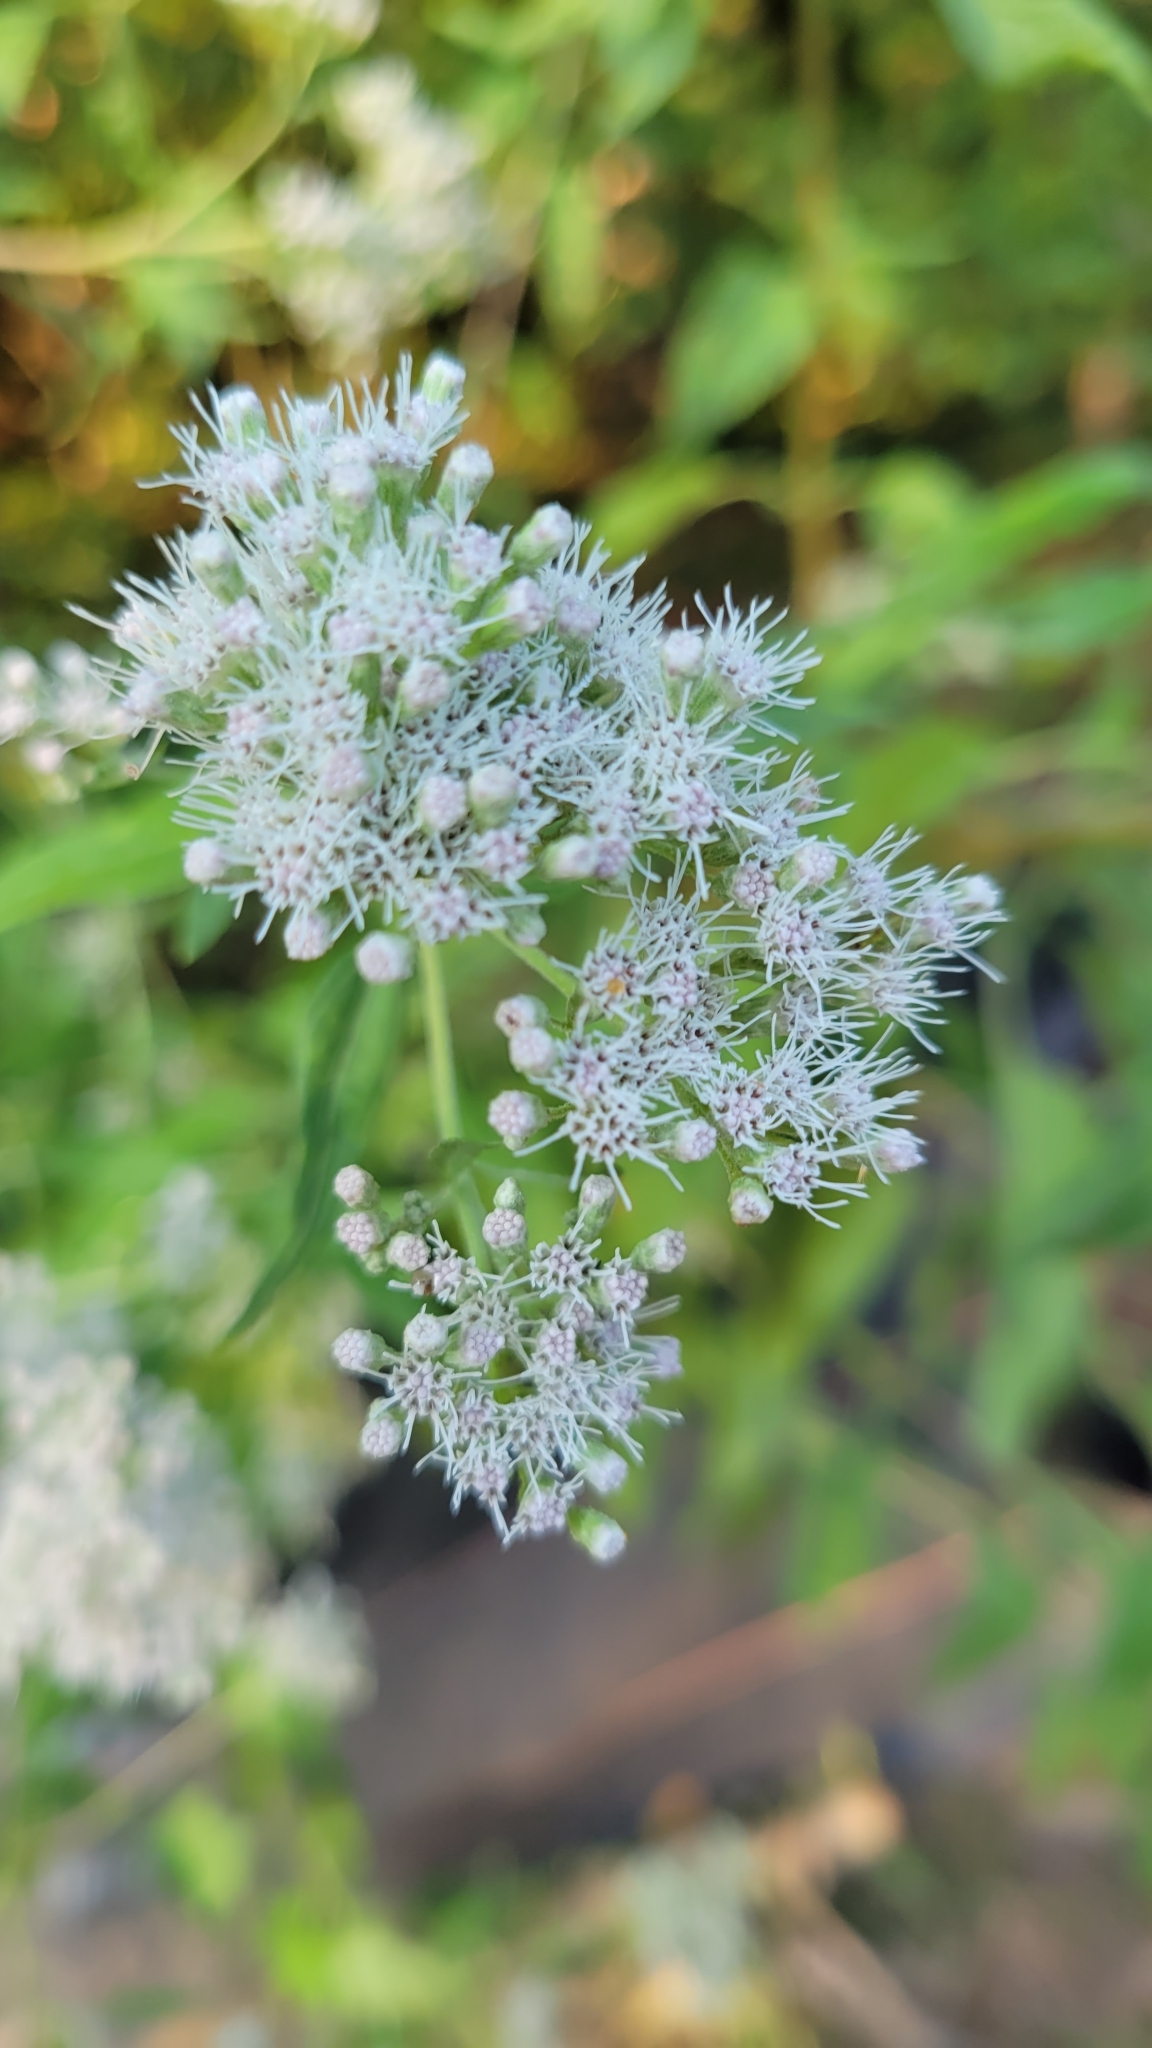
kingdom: Plantae
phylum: Tracheophyta
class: Magnoliopsida
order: Asterales
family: Asteraceae
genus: Eupatorium
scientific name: Eupatorium serotinum
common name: Late boneset
